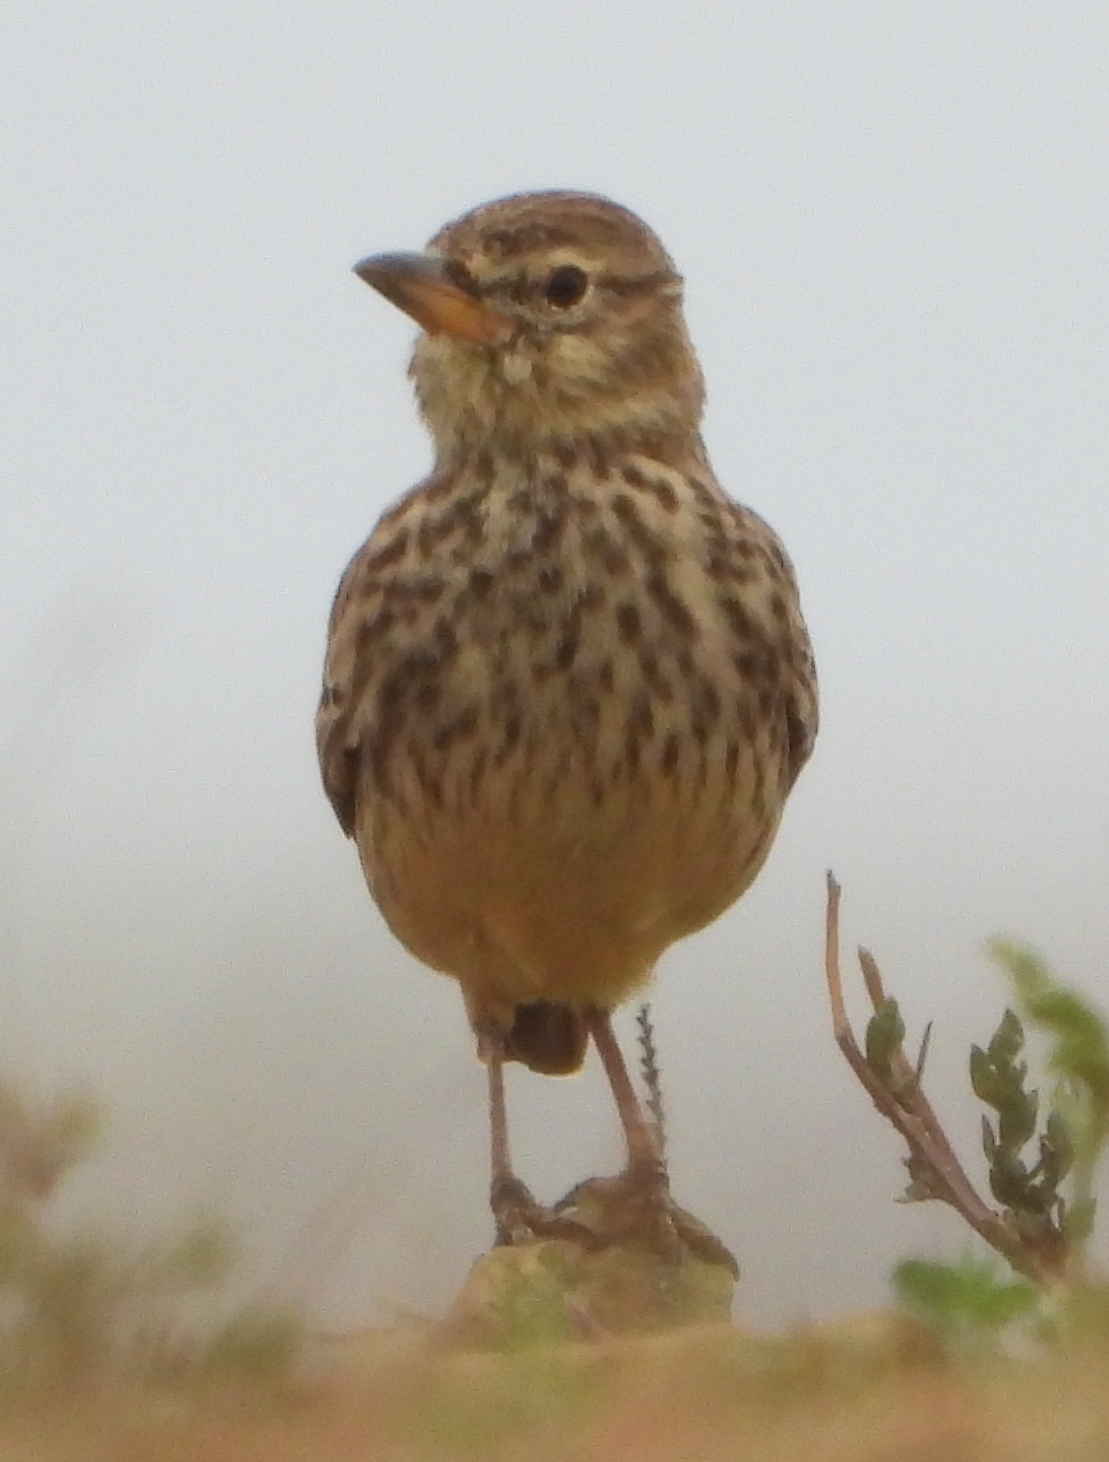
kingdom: Animalia
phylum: Chordata
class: Aves
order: Passeriformes
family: Alaudidae
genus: Galerida
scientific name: Galerida magnirostris
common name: Large-billed lark
